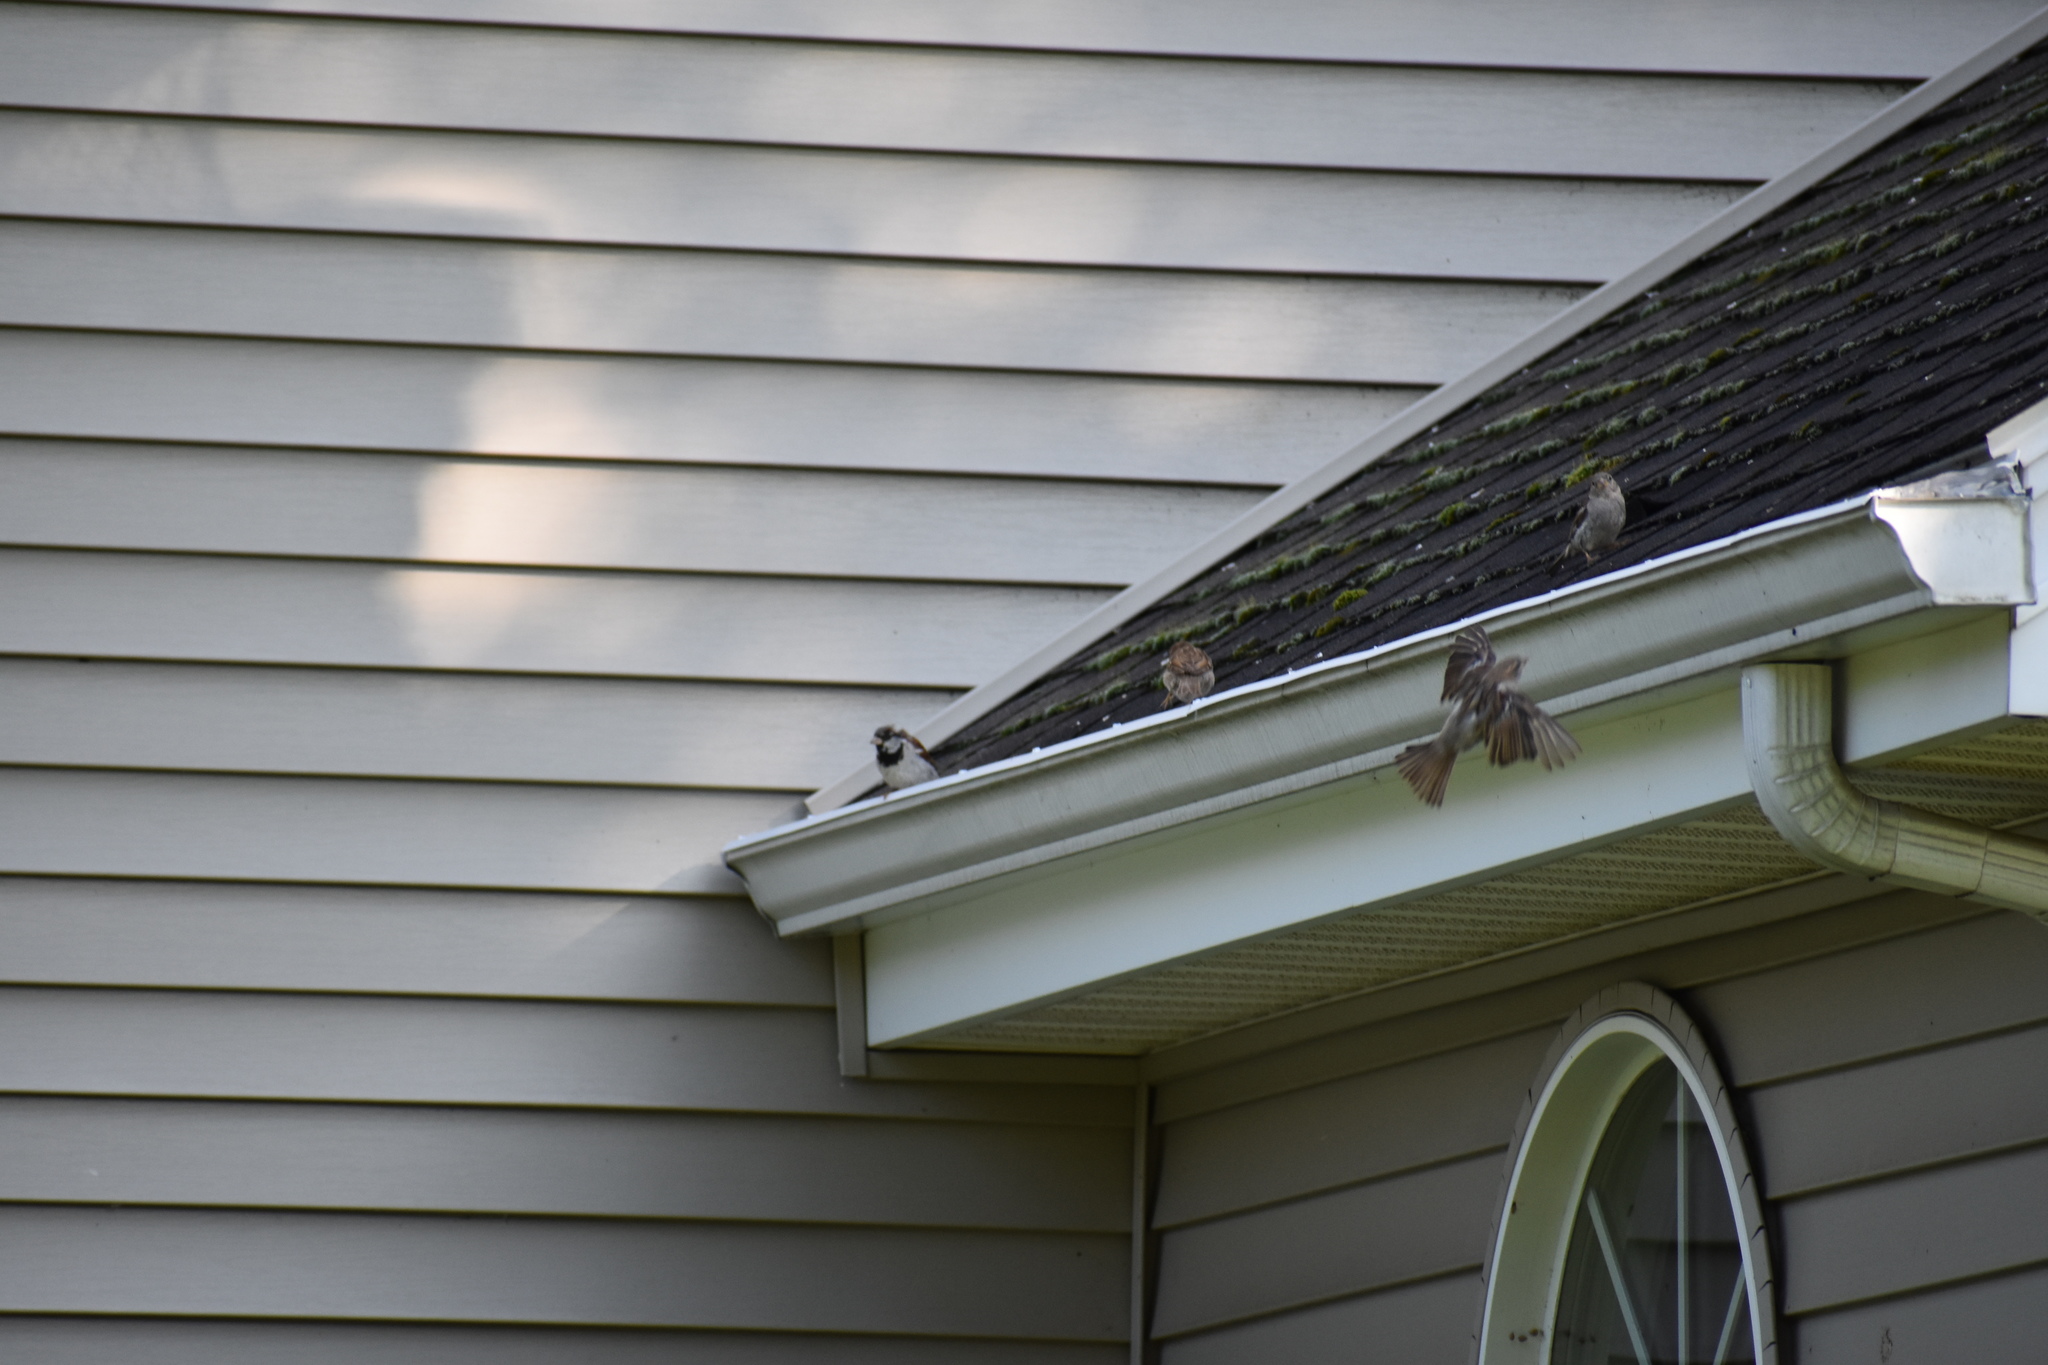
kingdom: Animalia
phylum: Chordata
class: Aves
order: Passeriformes
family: Passeridae
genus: Passer
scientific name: Passer domesticus
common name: House sparrow
